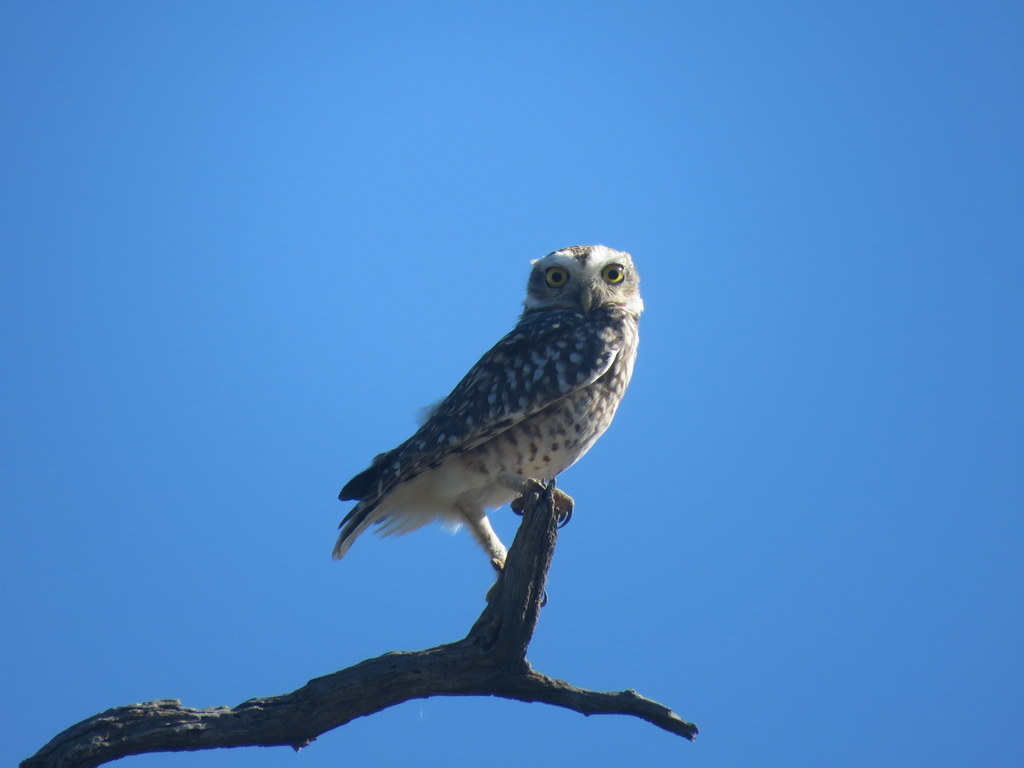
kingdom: Animalia
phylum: Chordata
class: Aves
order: Strigiformes
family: Strigidae
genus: Athene
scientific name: Athene cunicularia
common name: Burrowing owl
